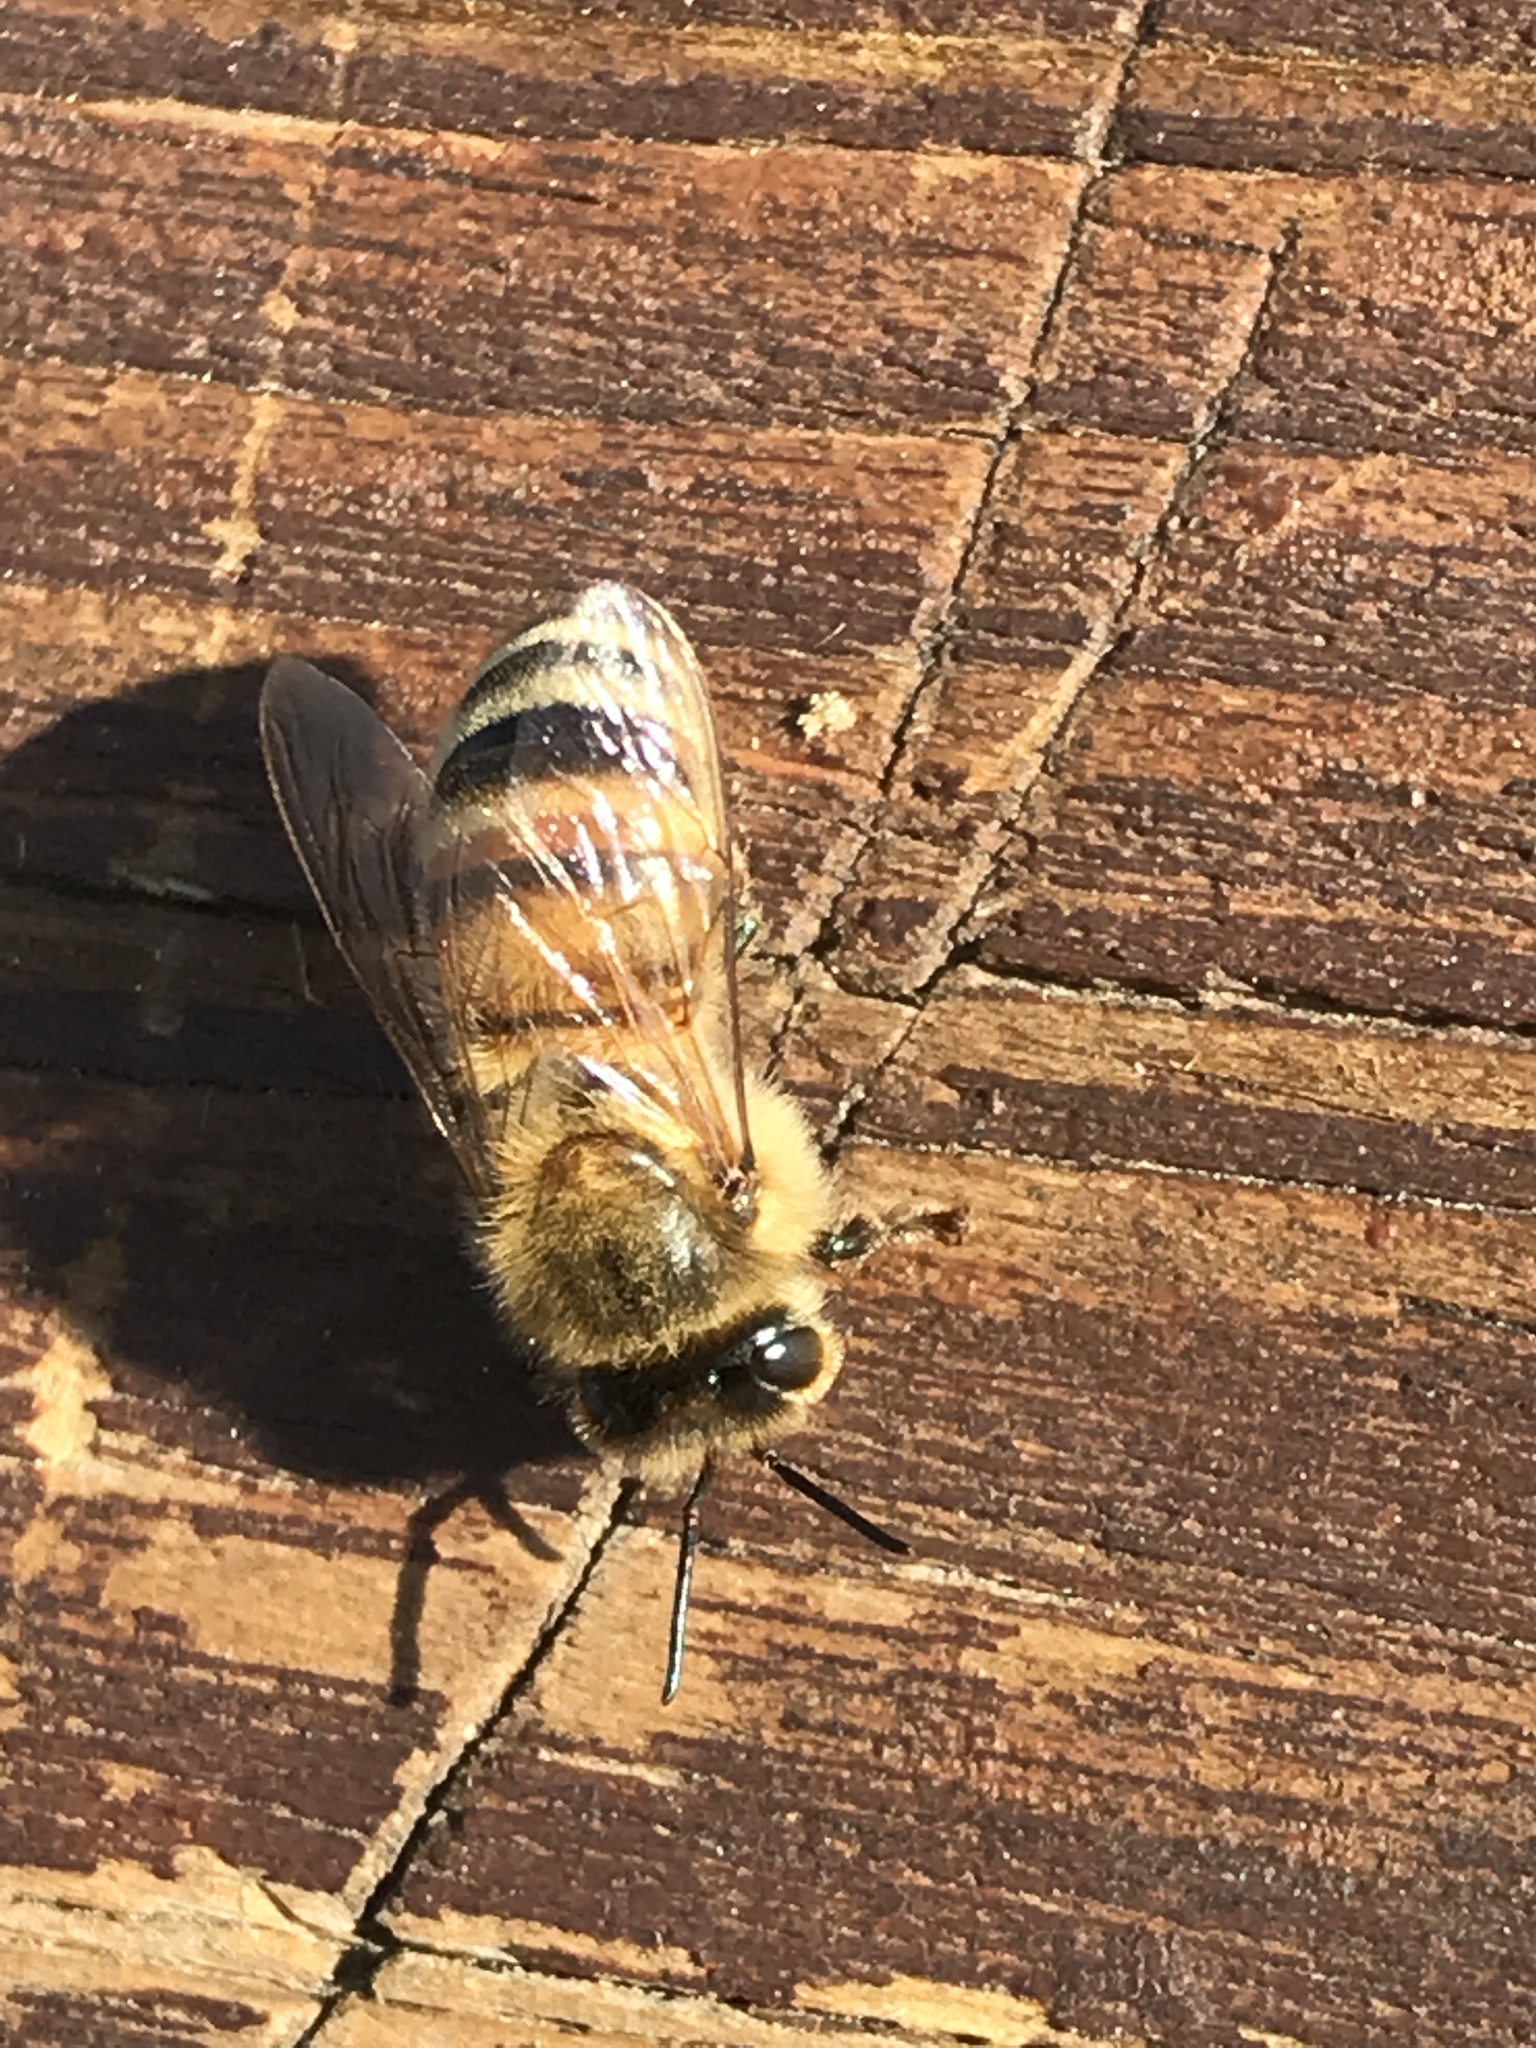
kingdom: Animalia
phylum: Arthropoda
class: Insecta
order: Hymenoptera
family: Apidae
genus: Apis
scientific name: Apis mellifera
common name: Honey bee
